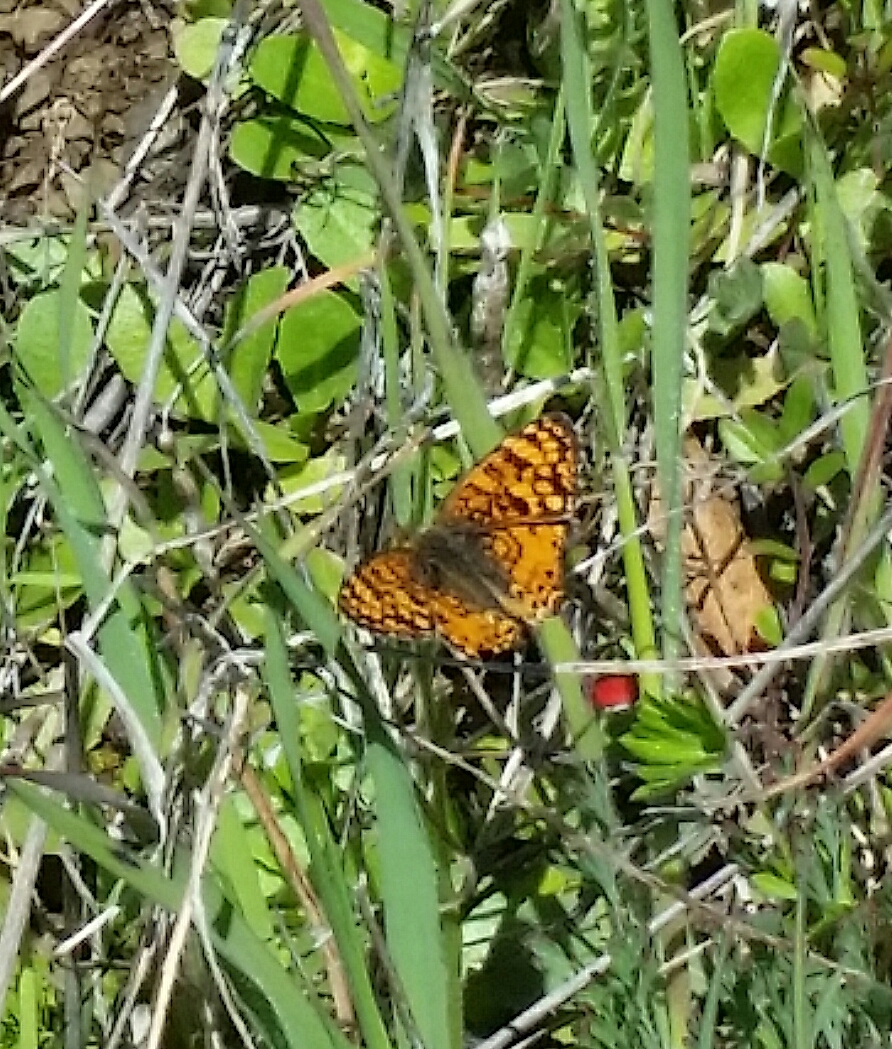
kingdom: Animalia
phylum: Arthropoda
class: Insecta
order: Lepidoptera
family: Nymphalidae
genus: Eresia
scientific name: Eresia aveyrona
